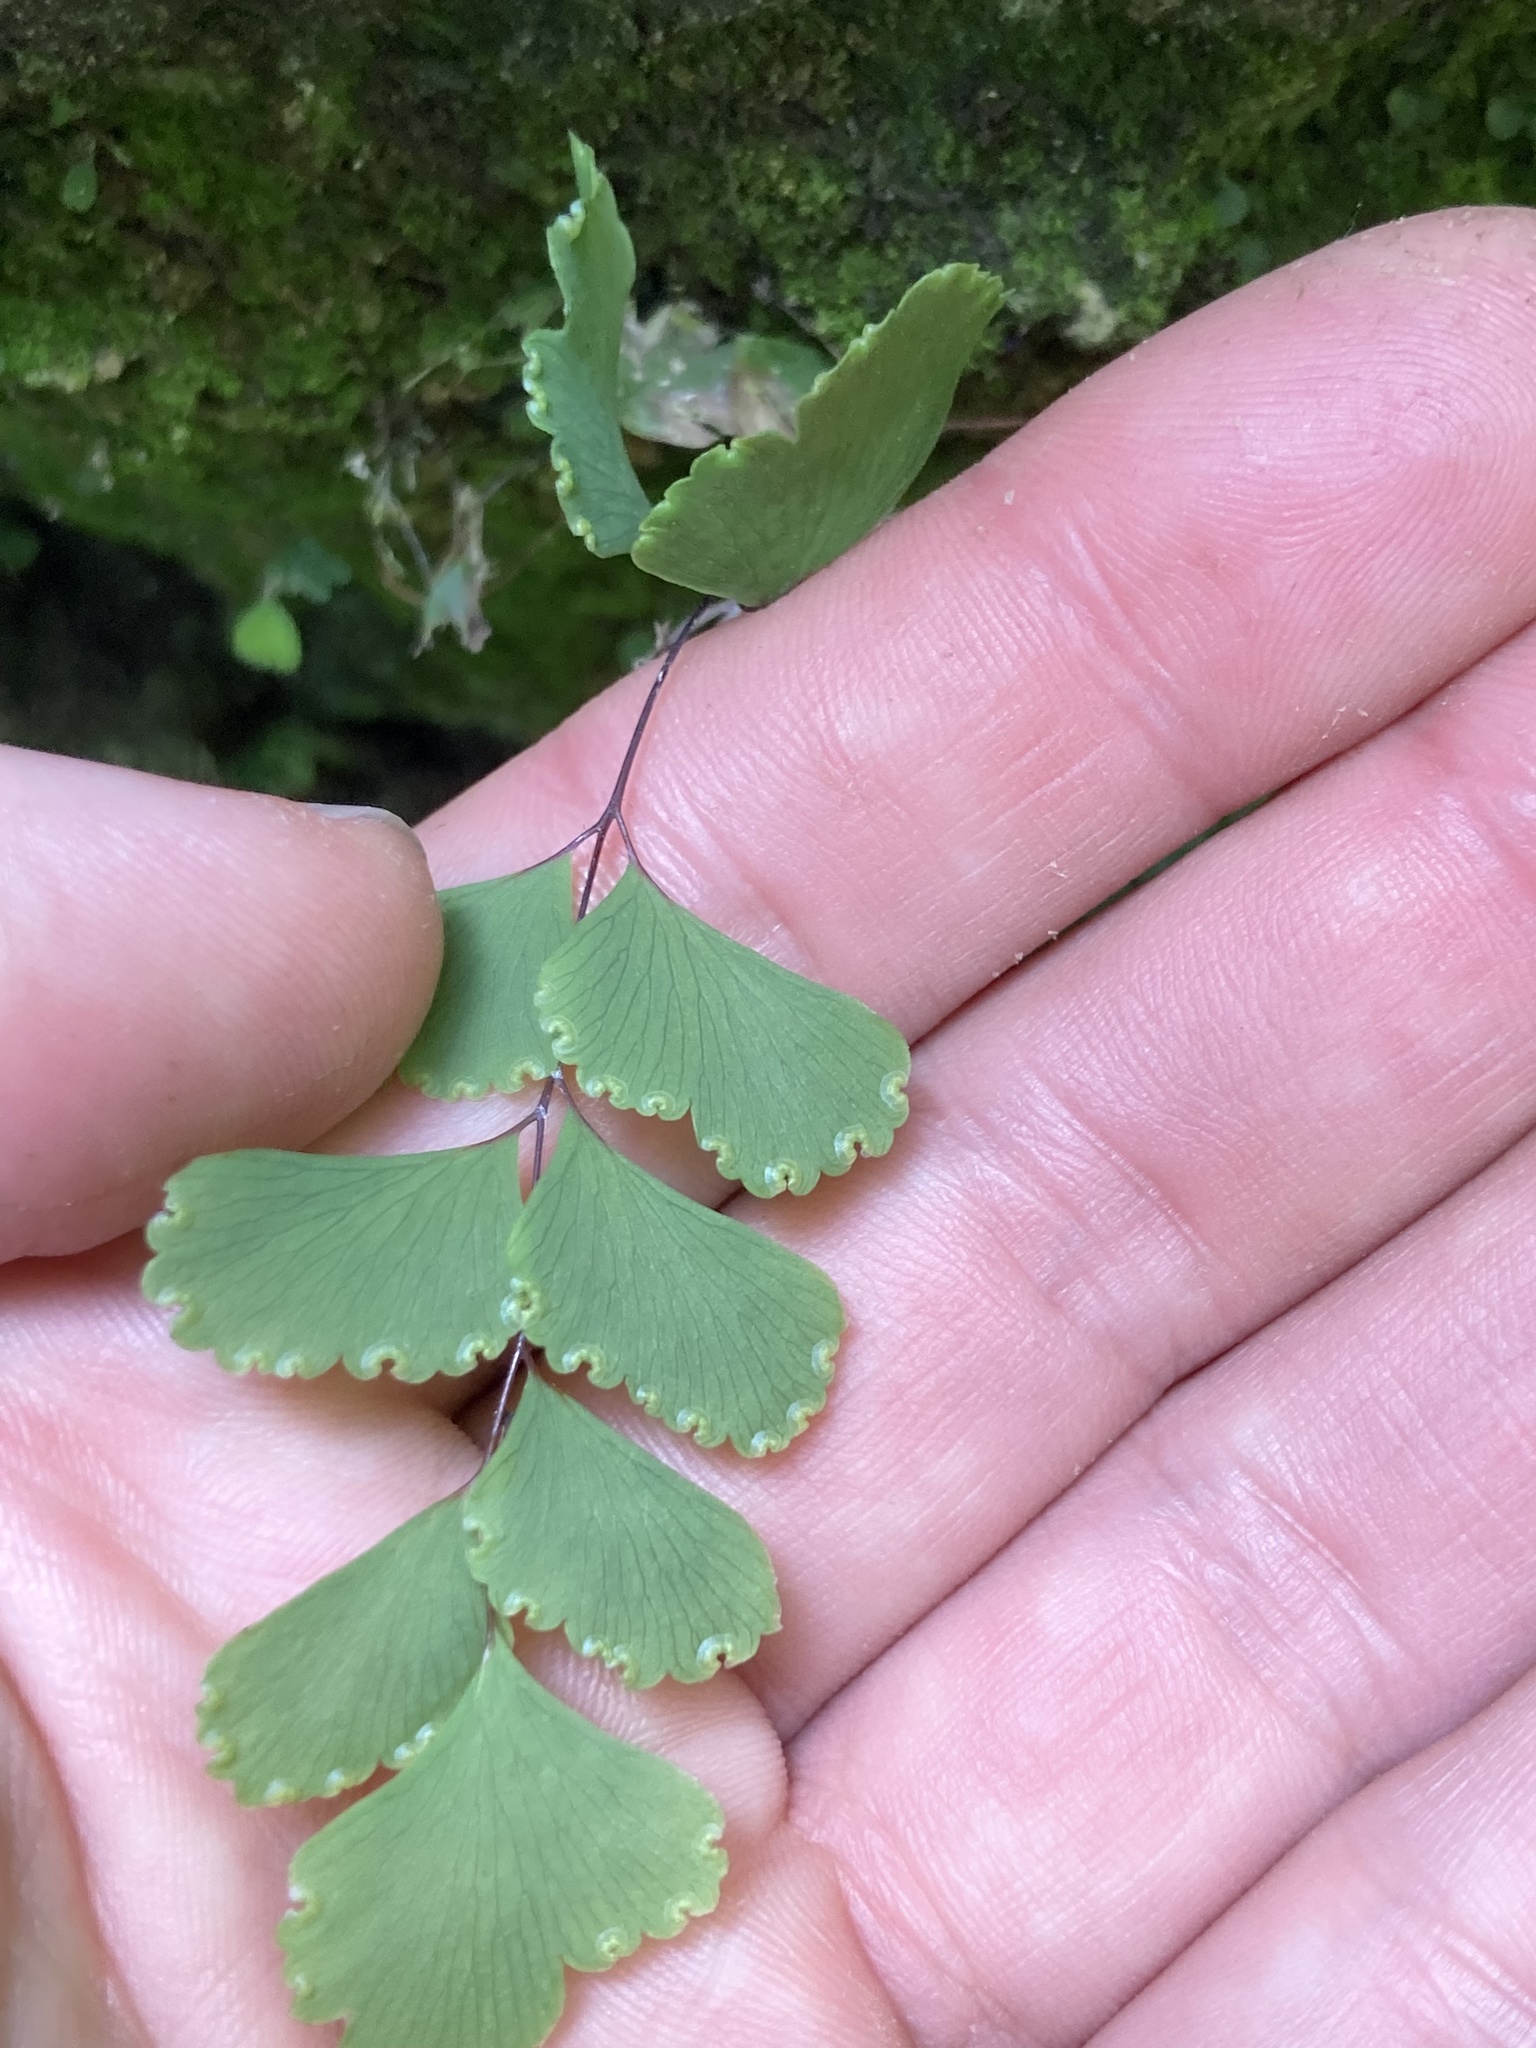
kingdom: Plantae
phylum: Tracheophyta
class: Polypodiopsida
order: Polypodiales
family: Pteridaceae
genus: Adiantum
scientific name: Adiantum cunninghamii
